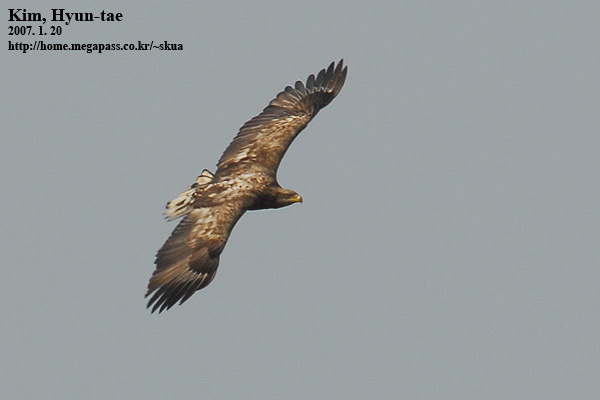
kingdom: Animalia
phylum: Chordata
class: Aves
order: Accipitriformes
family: Accipitridae
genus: Haliaeetus
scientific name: Haliaeetus albicilla
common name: White-tailed eagle
